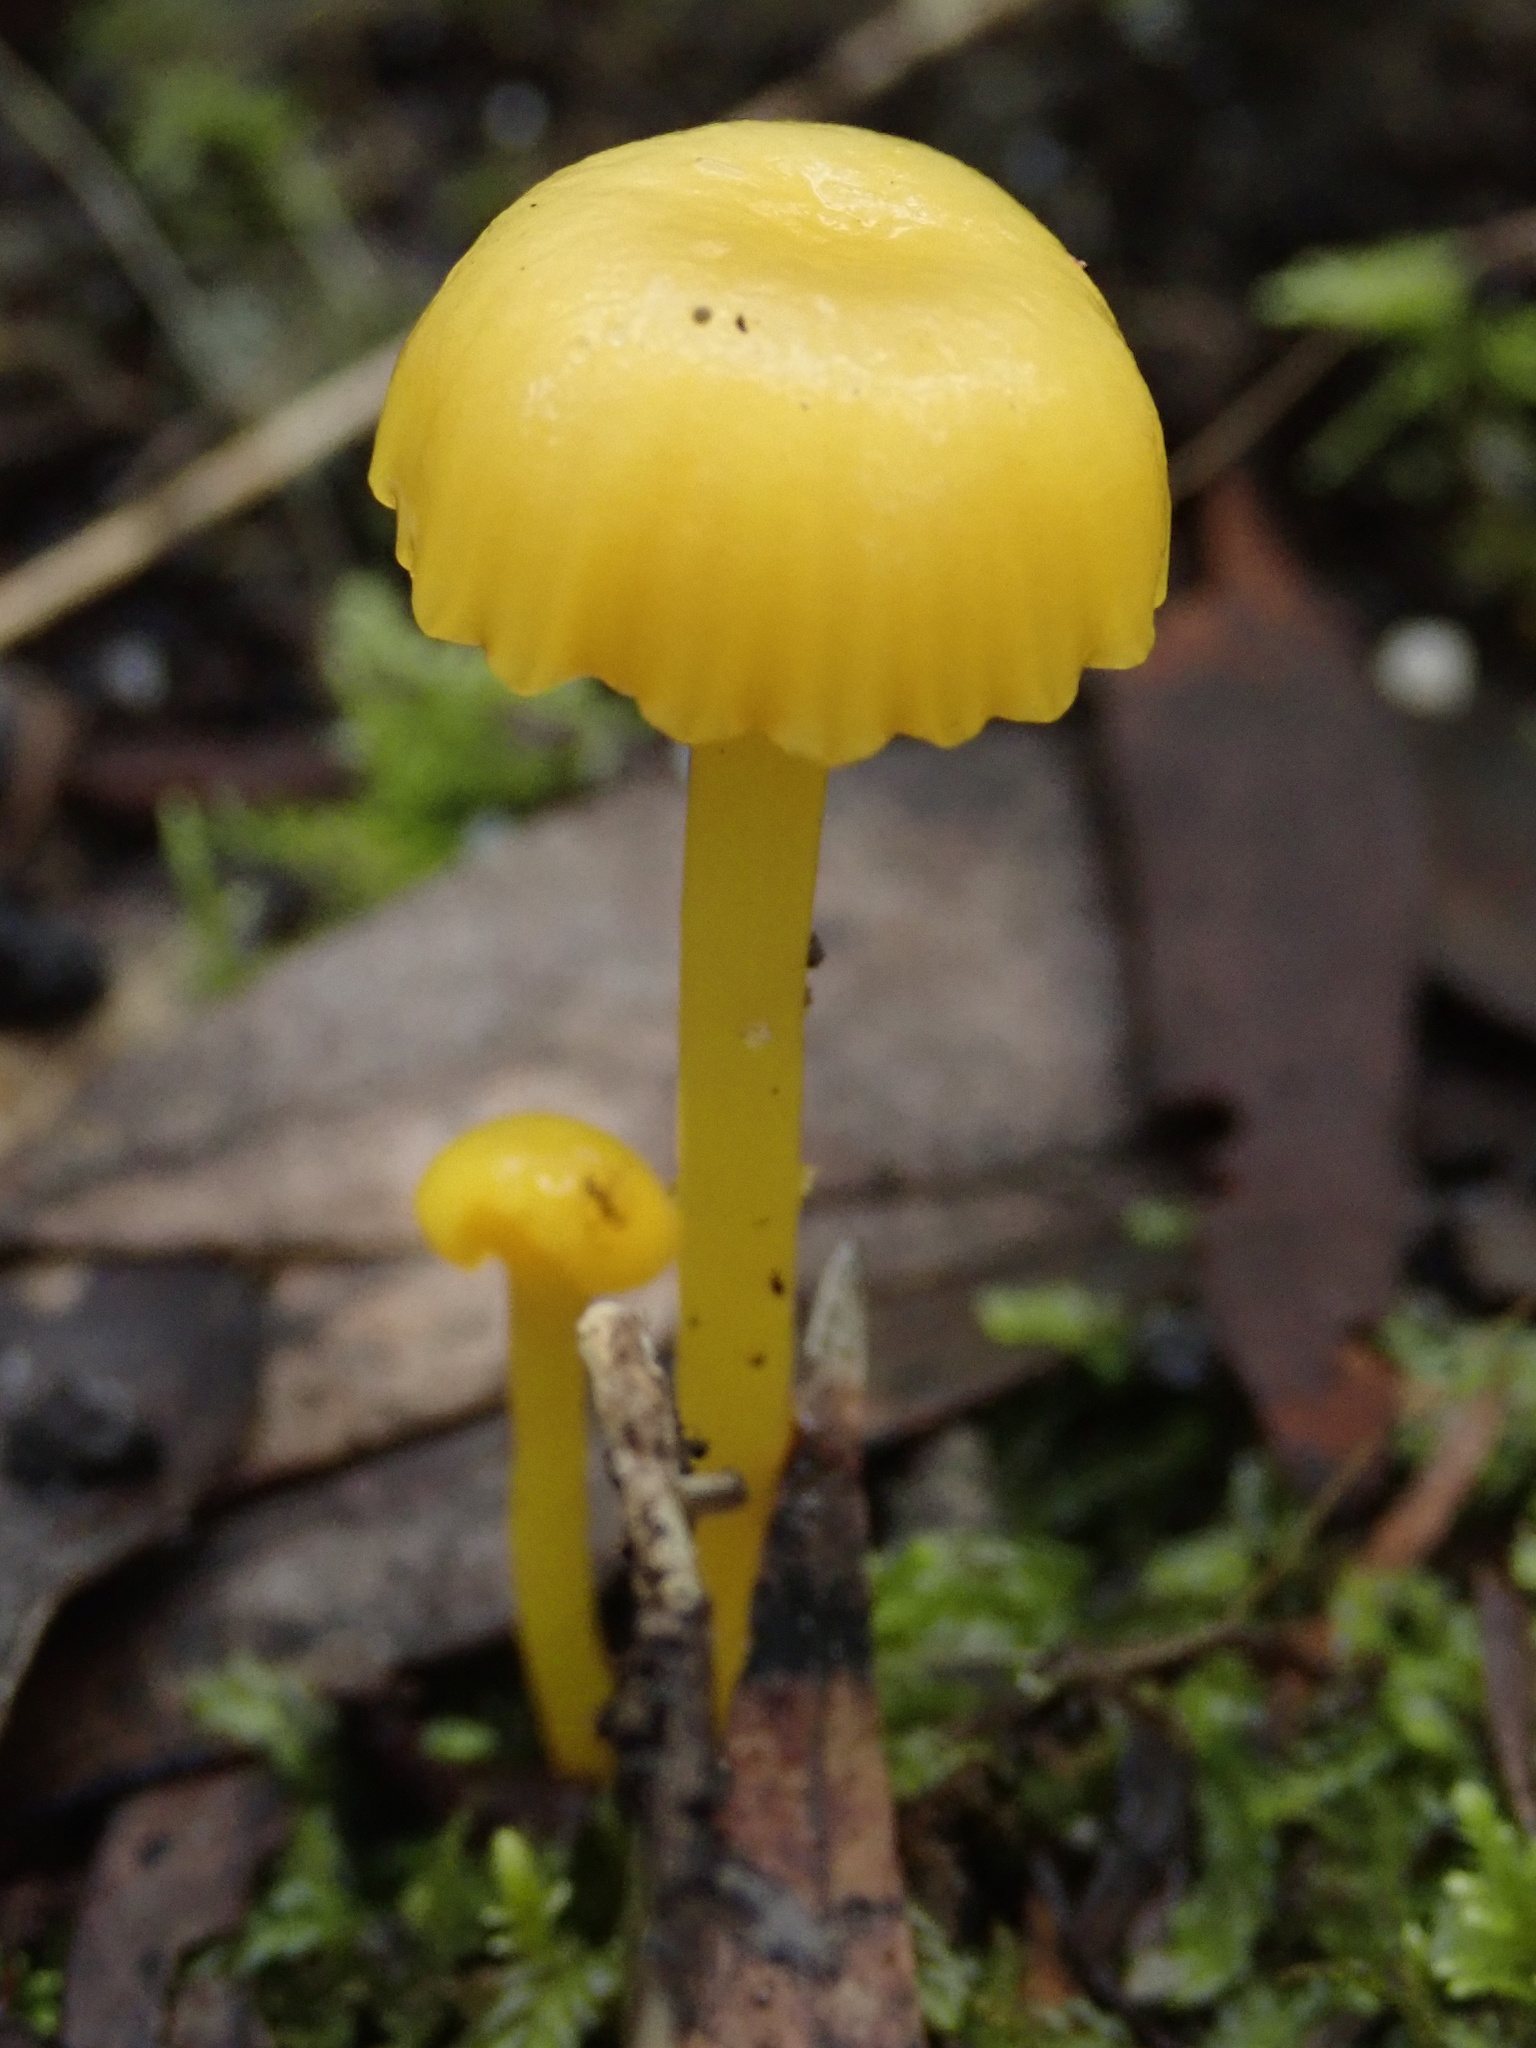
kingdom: Fungi
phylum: Basidiomycota
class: Agaricomycetes
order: Agaricales
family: Hygrophoraceae
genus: Gloioxanthomyces
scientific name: Gloioxanthomyces
